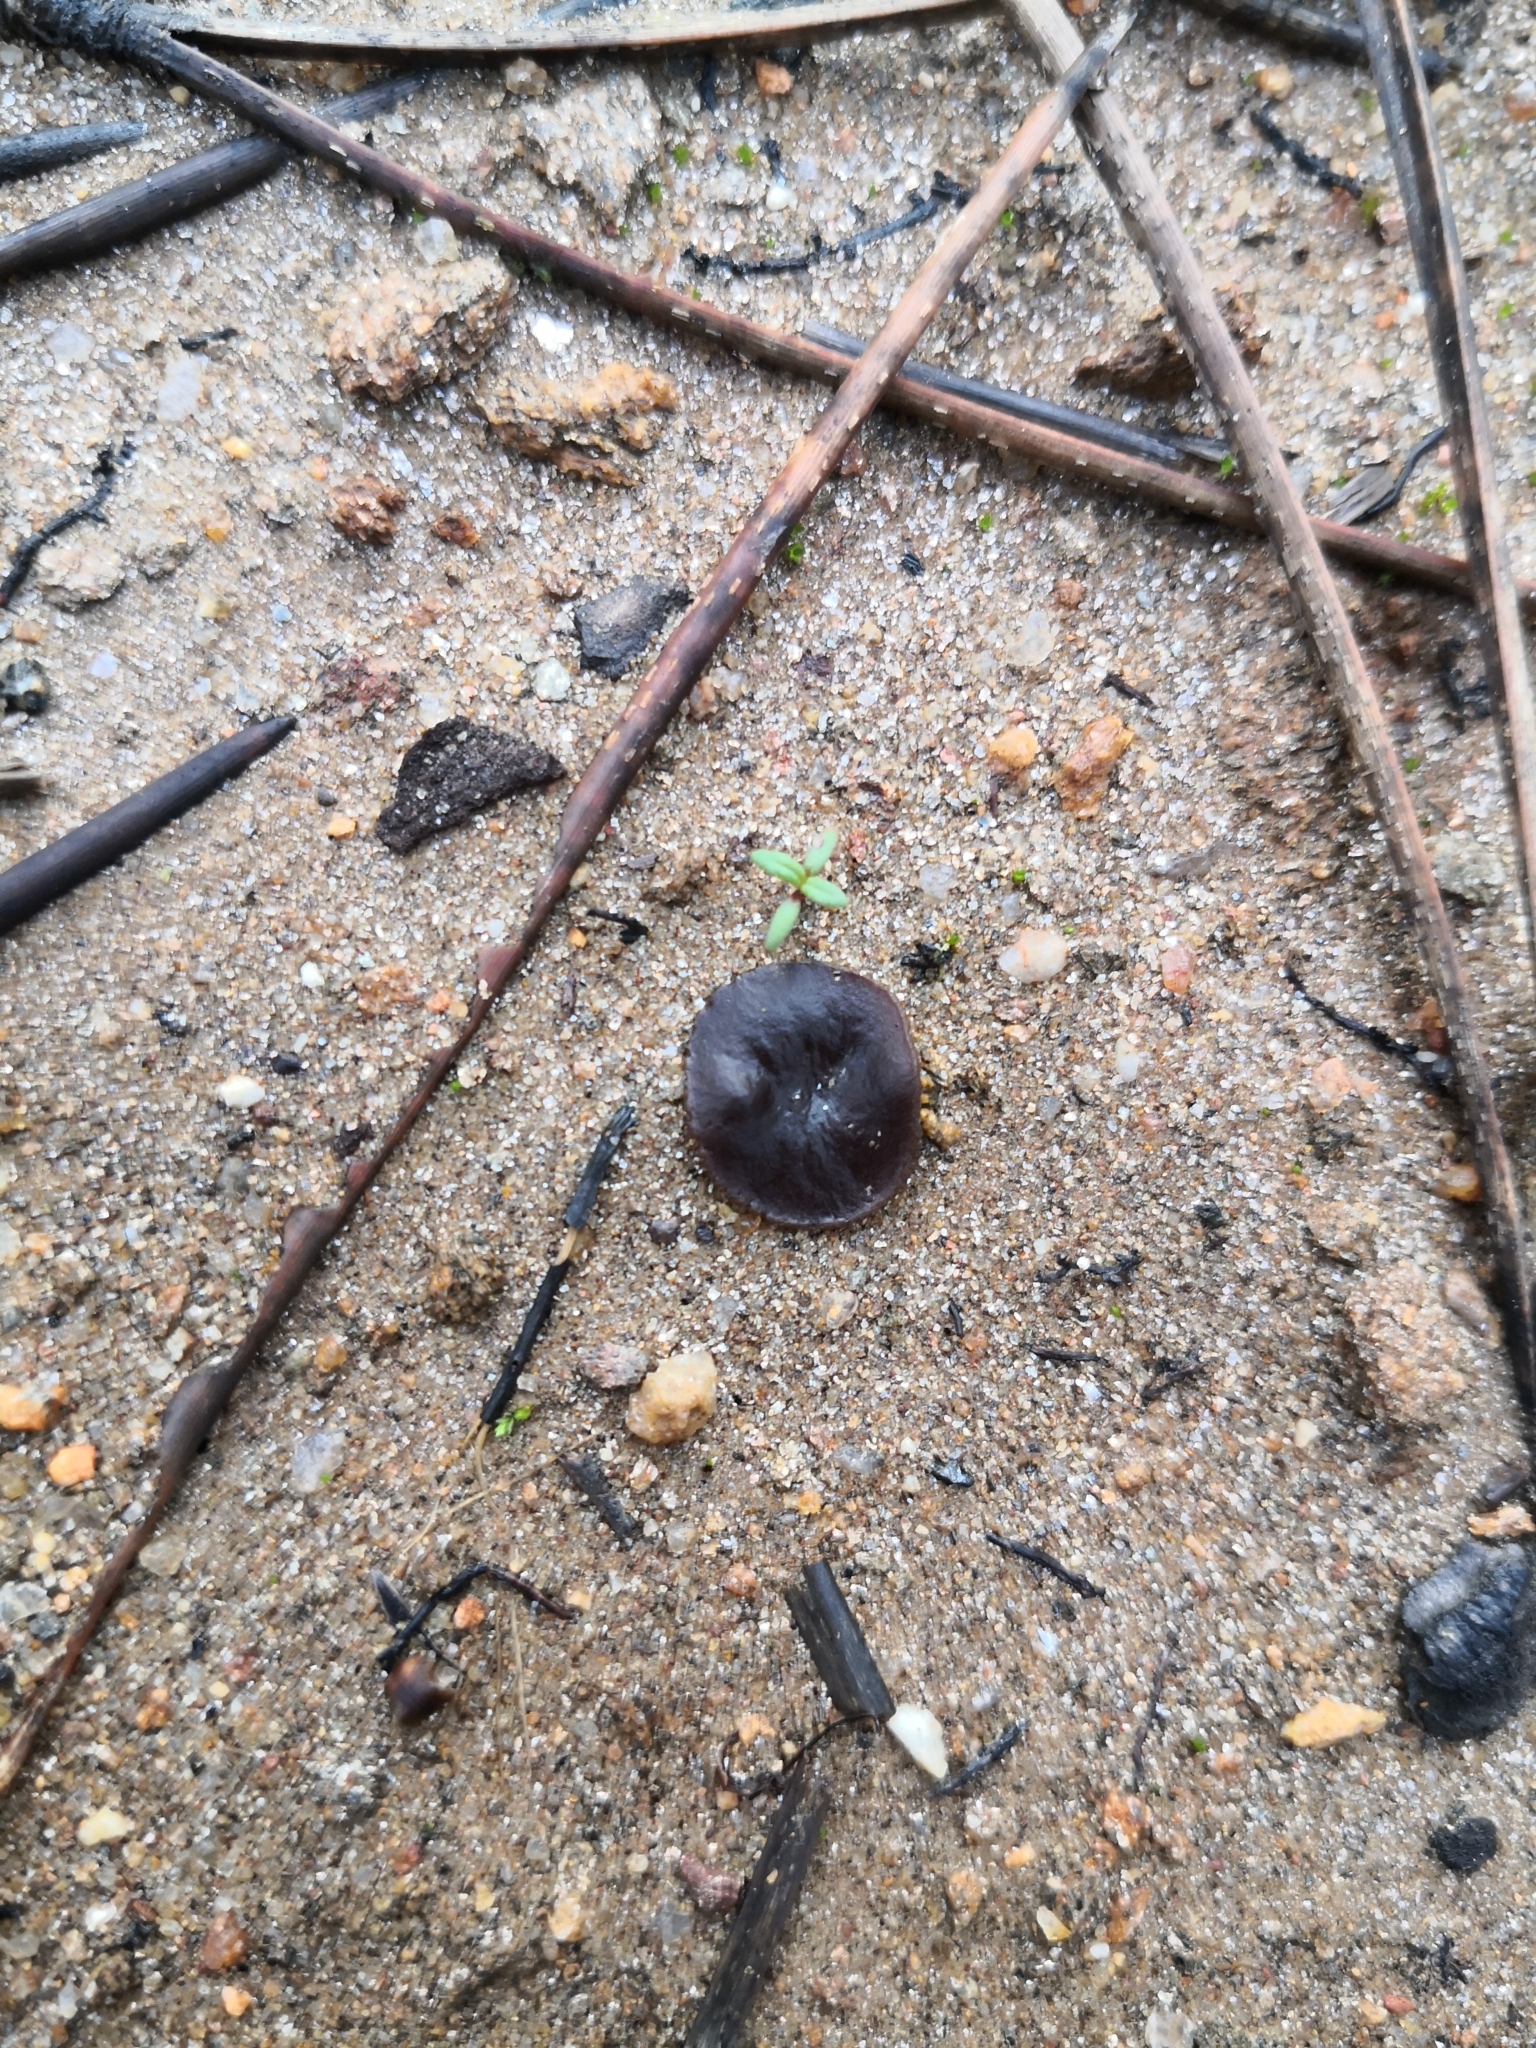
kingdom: Fungi
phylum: Ascomycota
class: Pezizomycetes
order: Pezizales
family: Discinaceae
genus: Gyromitra
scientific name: Gyromitra infula
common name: Pouched false morel
